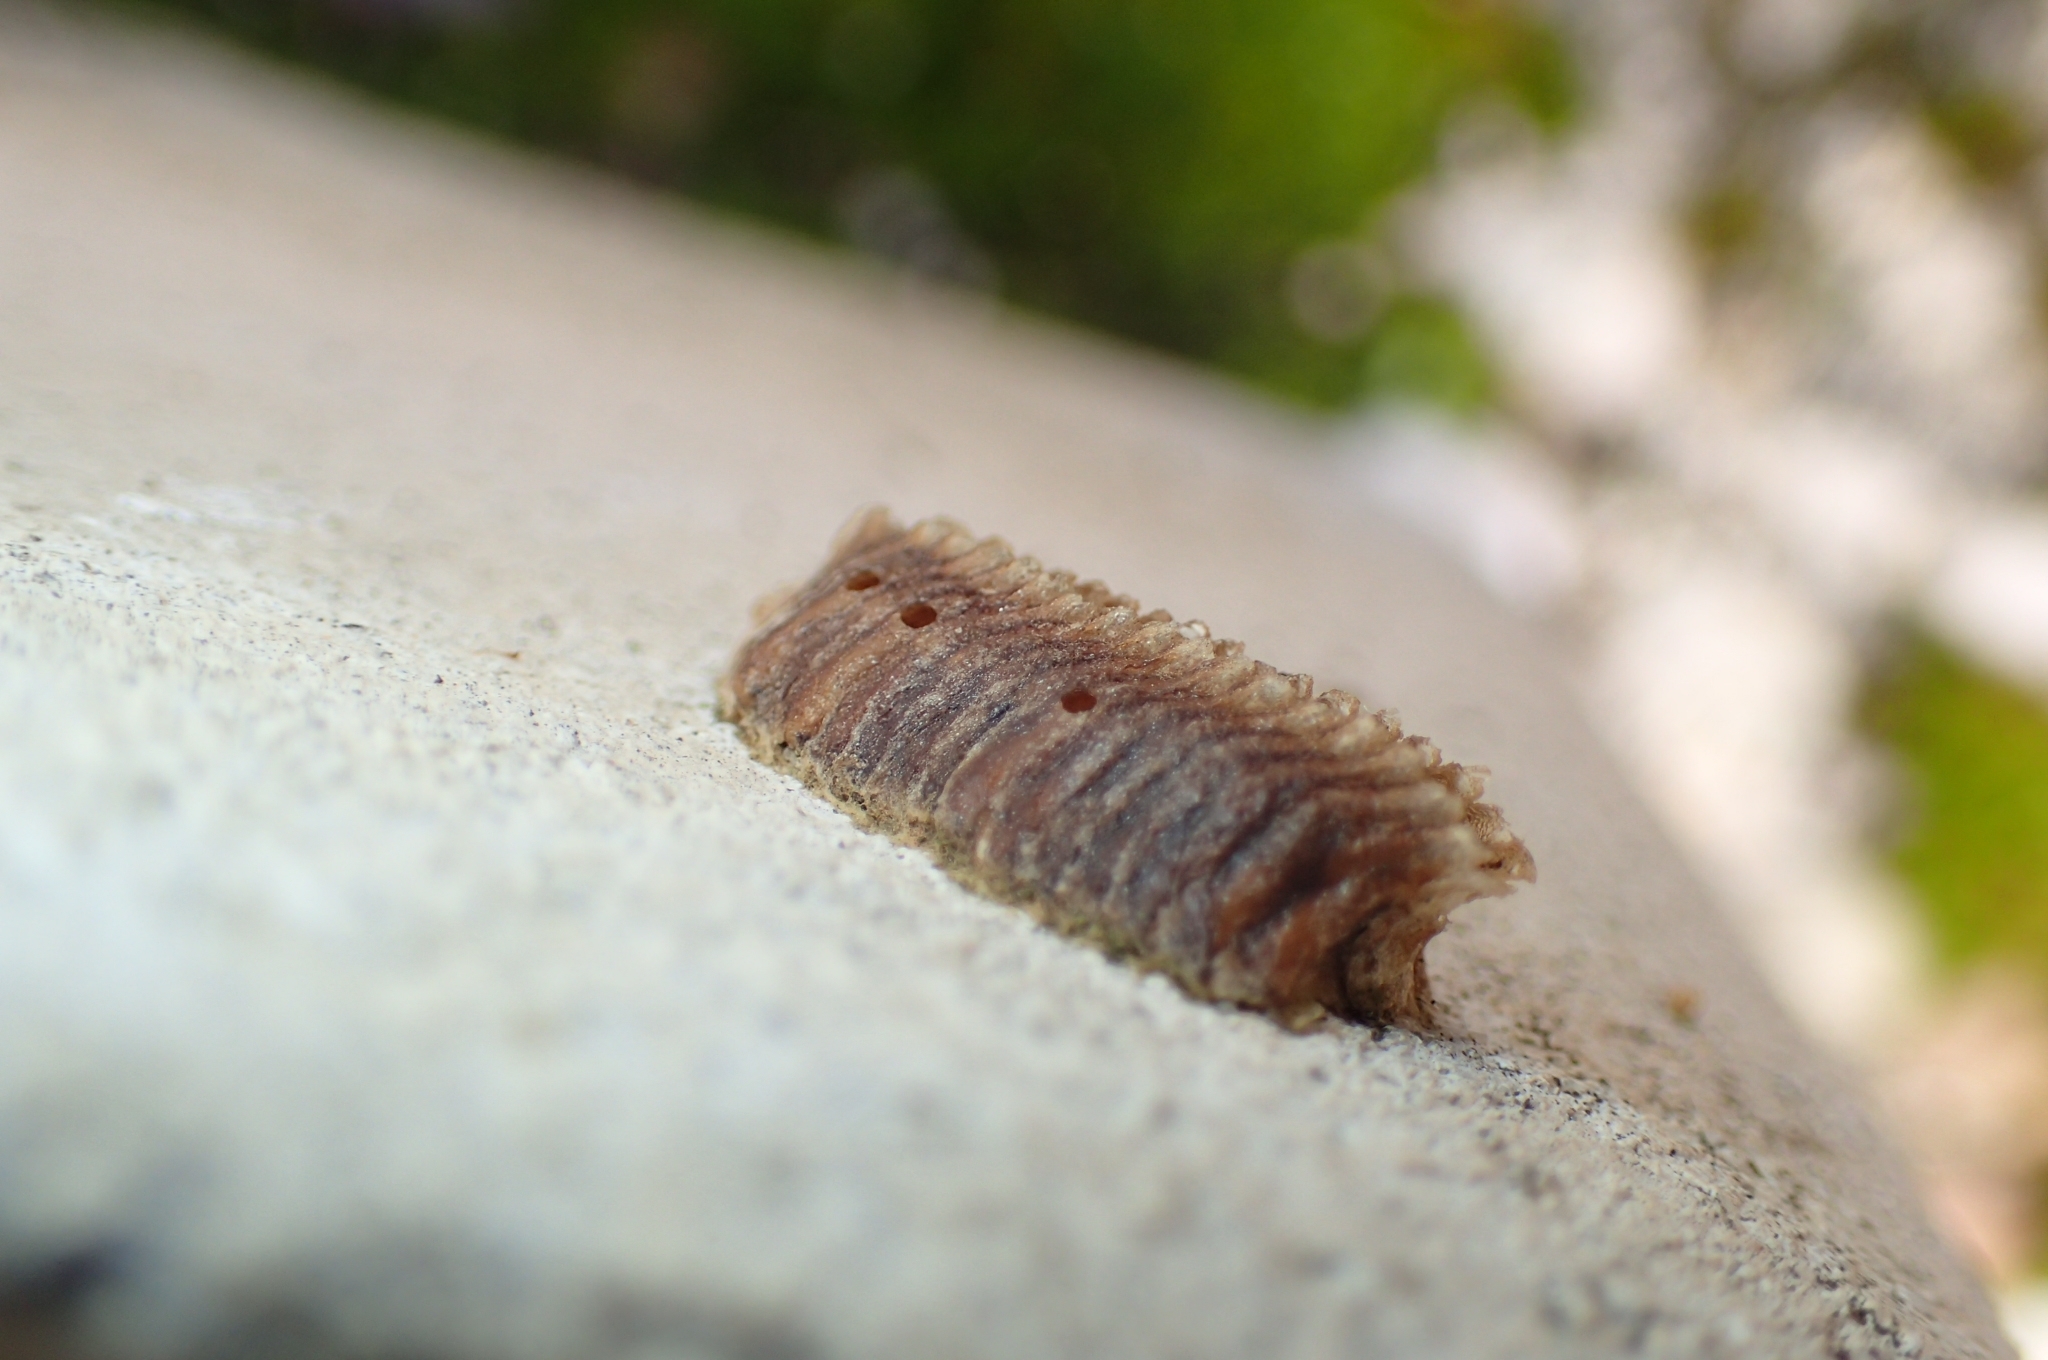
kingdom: Animalia
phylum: Arthropoda
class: Insecta
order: Mantodea
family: Eremiaphilidae
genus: Iris
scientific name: Iris oratoria
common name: Mediterranean mantis
